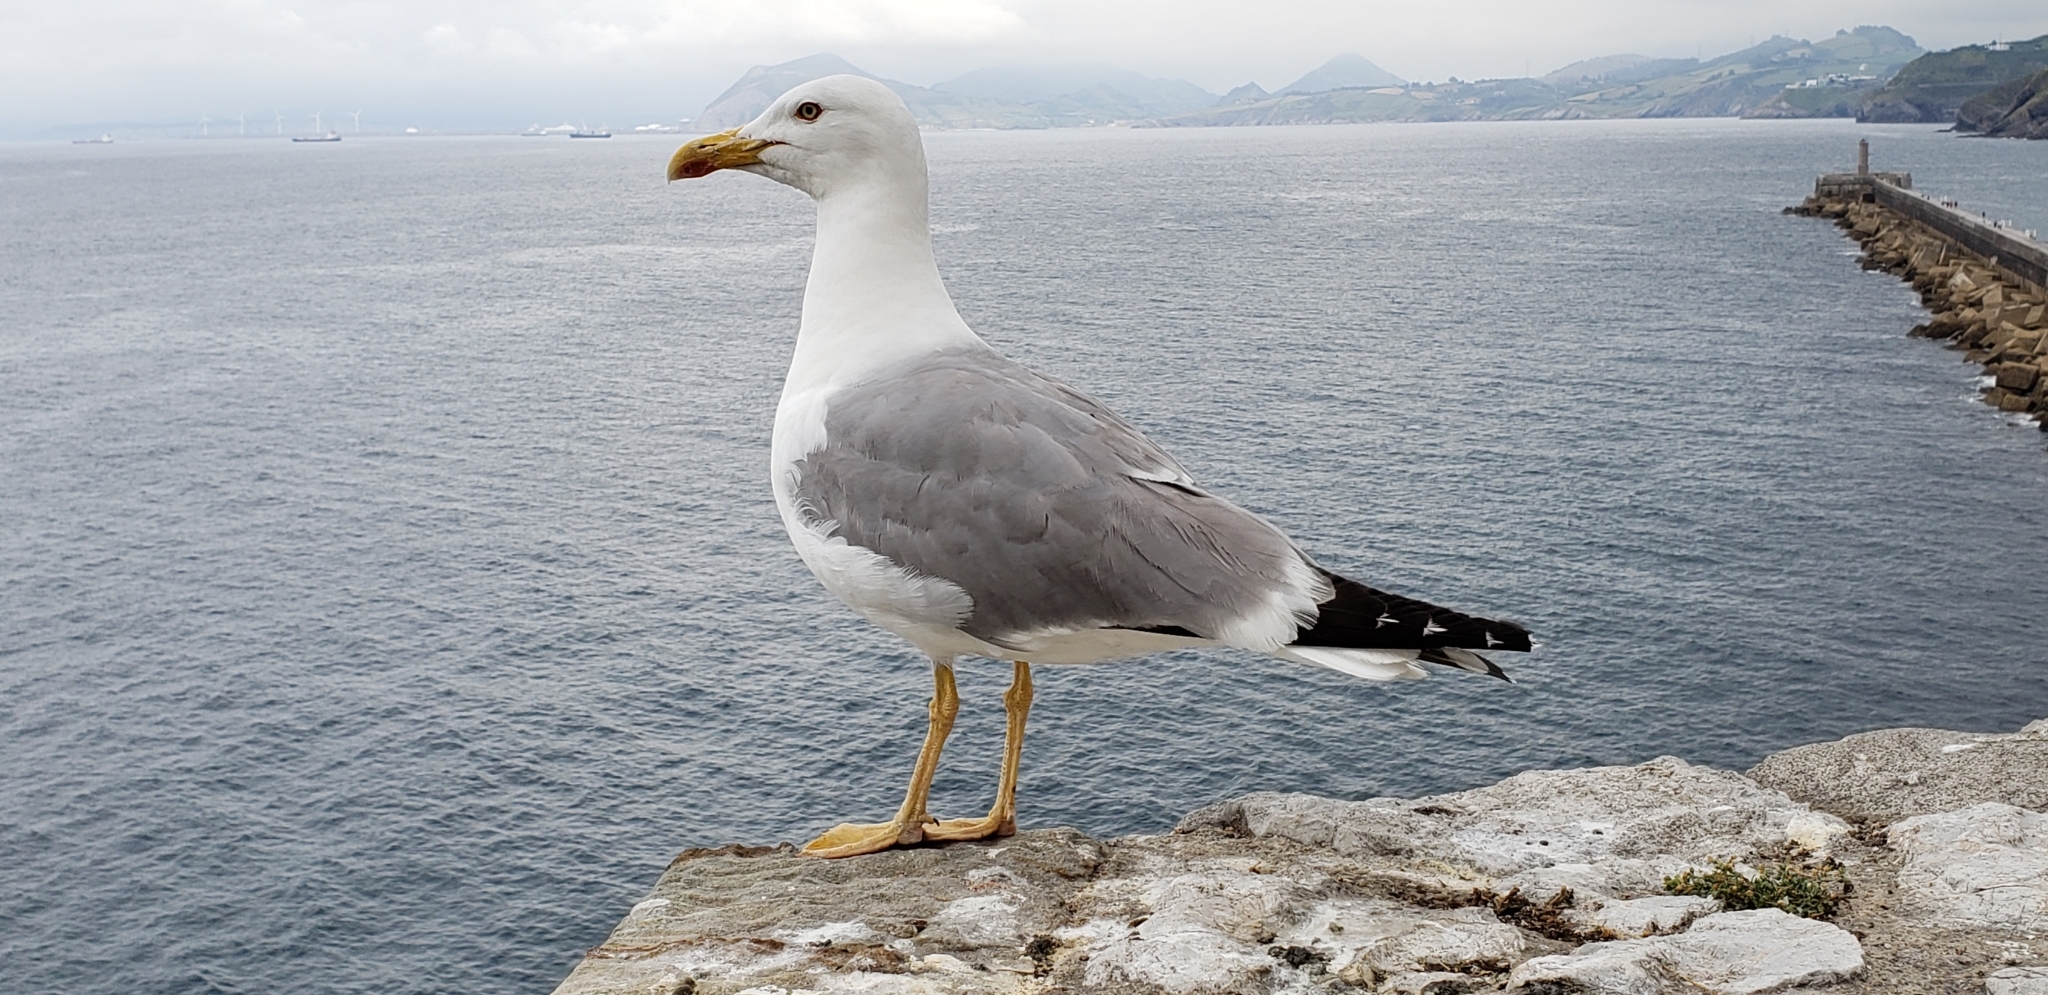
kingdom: Animalia
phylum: Chordata
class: Aves
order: Charadriiformes
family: Laridae
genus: Larus
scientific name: Larus michahellis
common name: Yellow-legged gull
